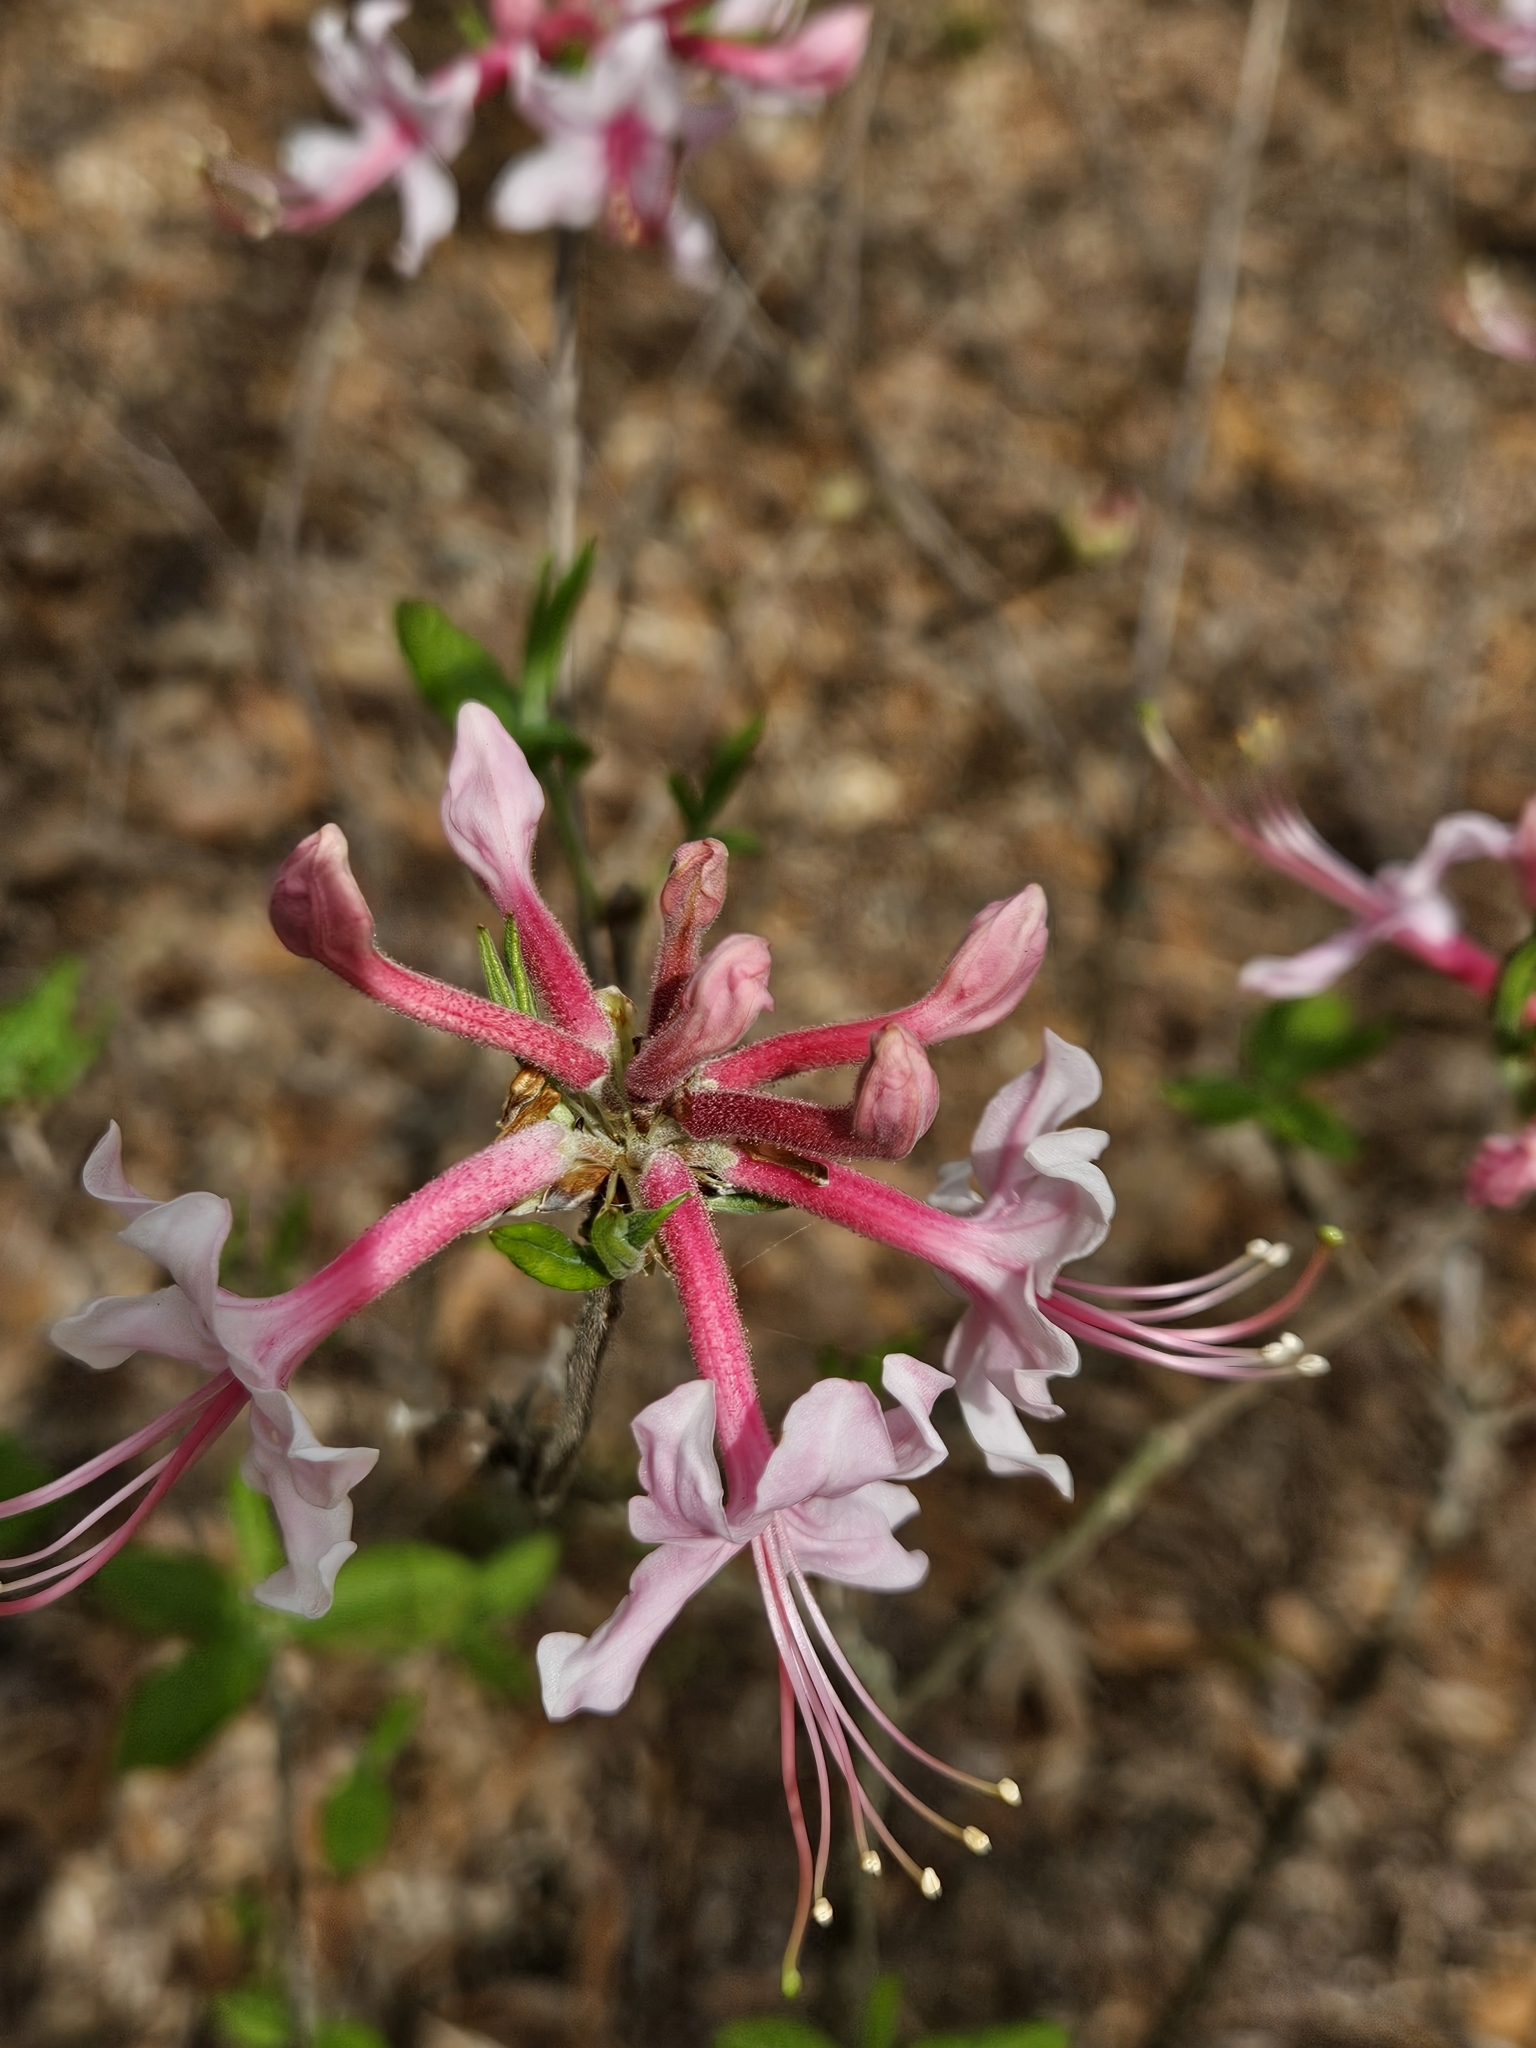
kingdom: Plantae
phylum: Tracheophyta
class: Magnoliopsida
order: Ericales
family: Ericaceae
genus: Rhododendron
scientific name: Rhododendron canescens
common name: Mountain azalea
